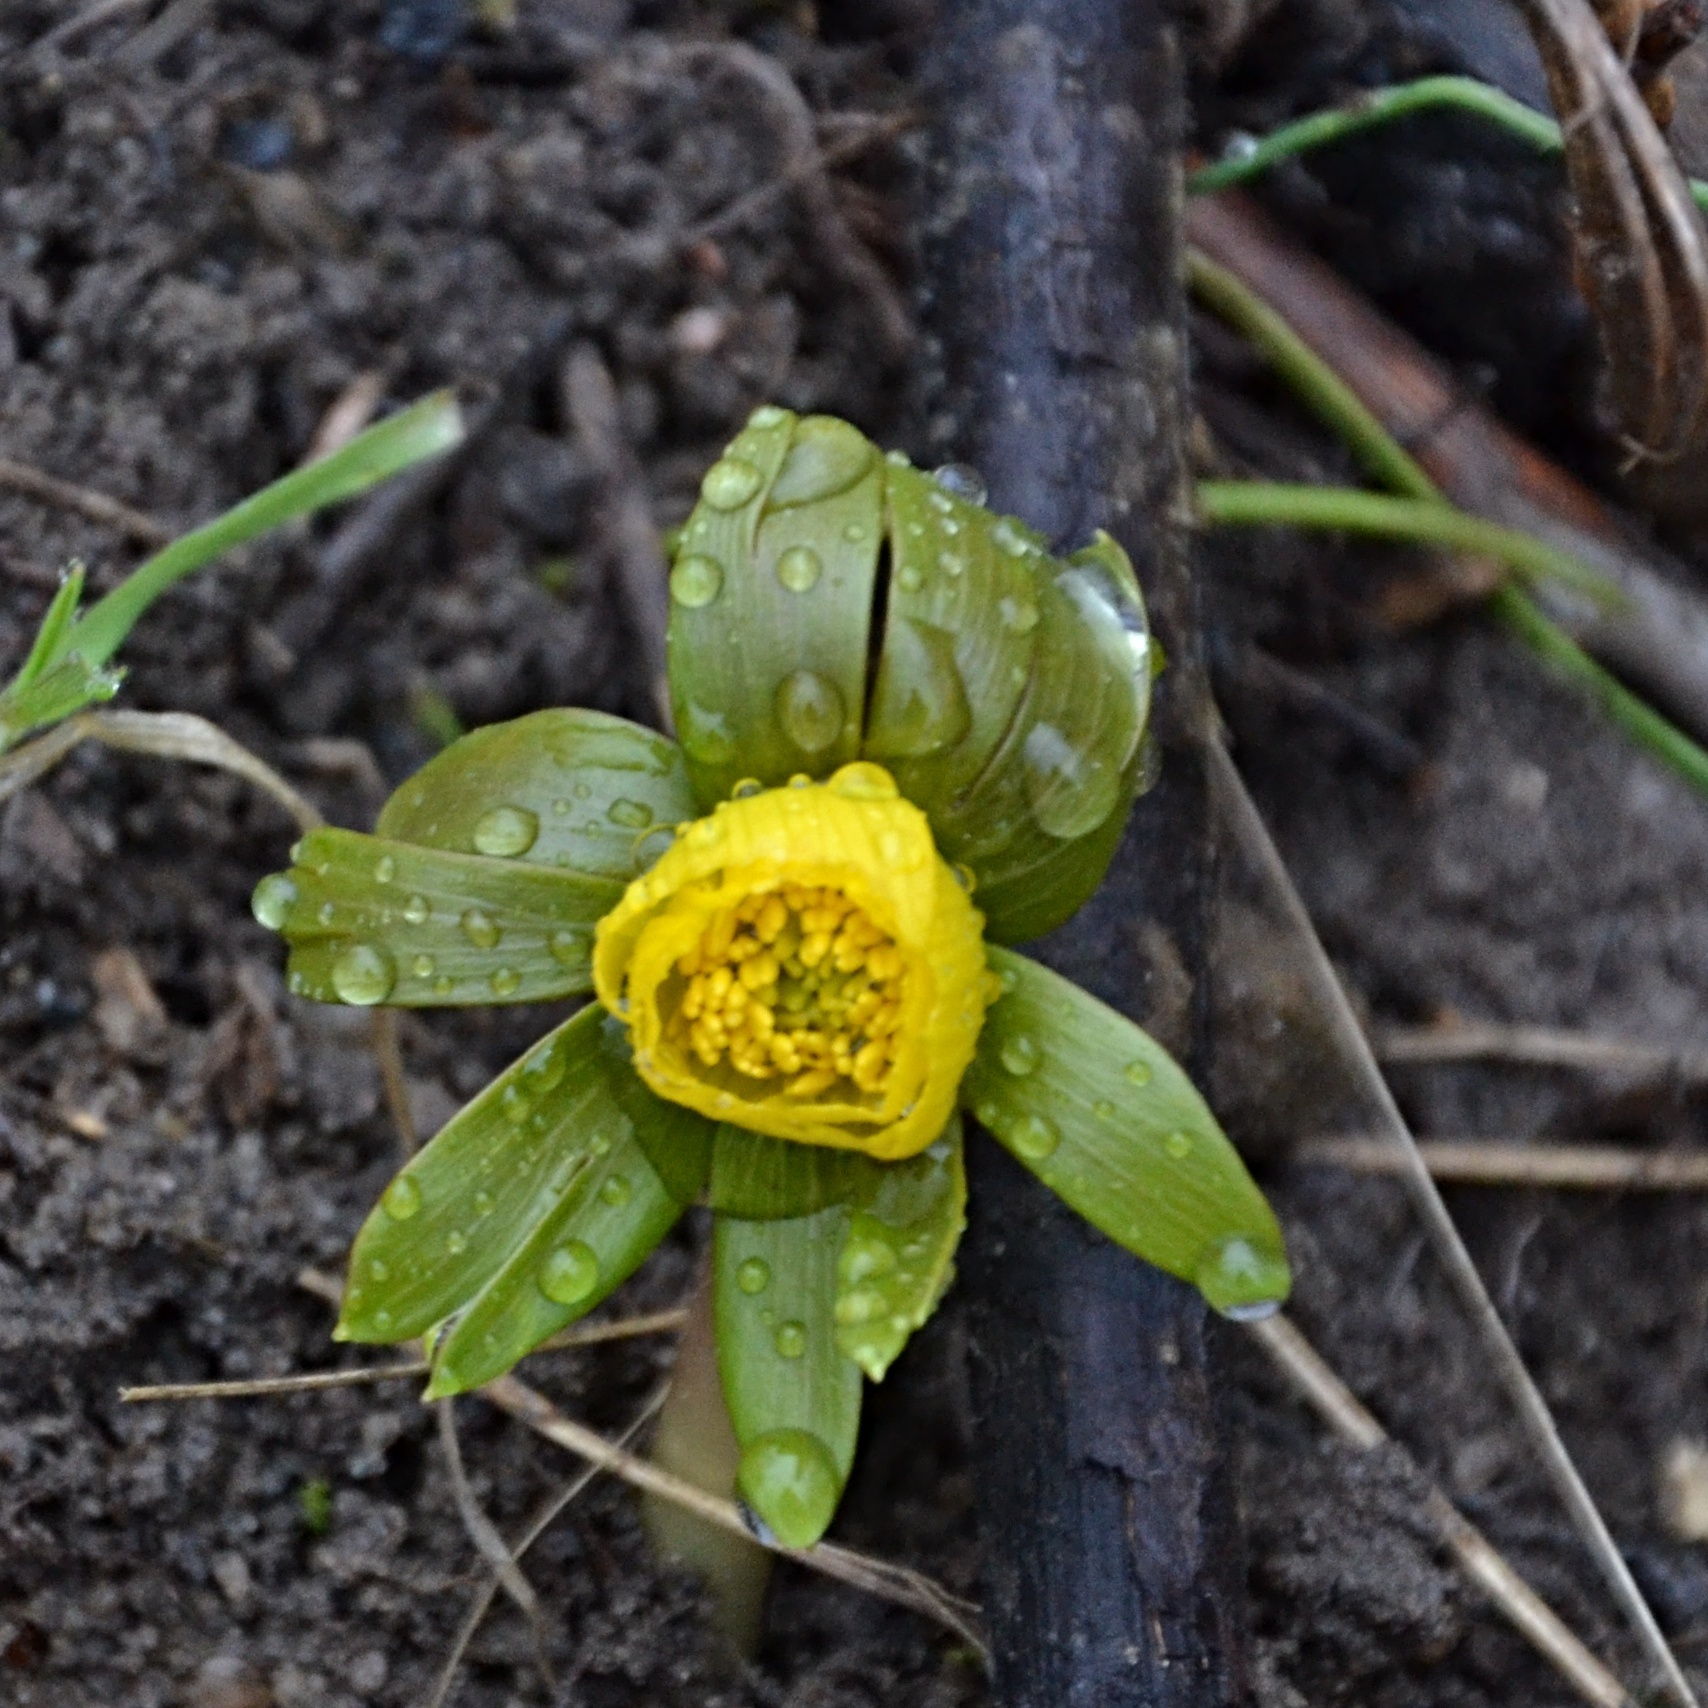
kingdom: Plantae
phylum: Tracheophyta
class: Magnoliopsida
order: Ranunculales
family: Ranunculaceae
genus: Eranthis
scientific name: Eranthis hyemalis
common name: Winter aconite
